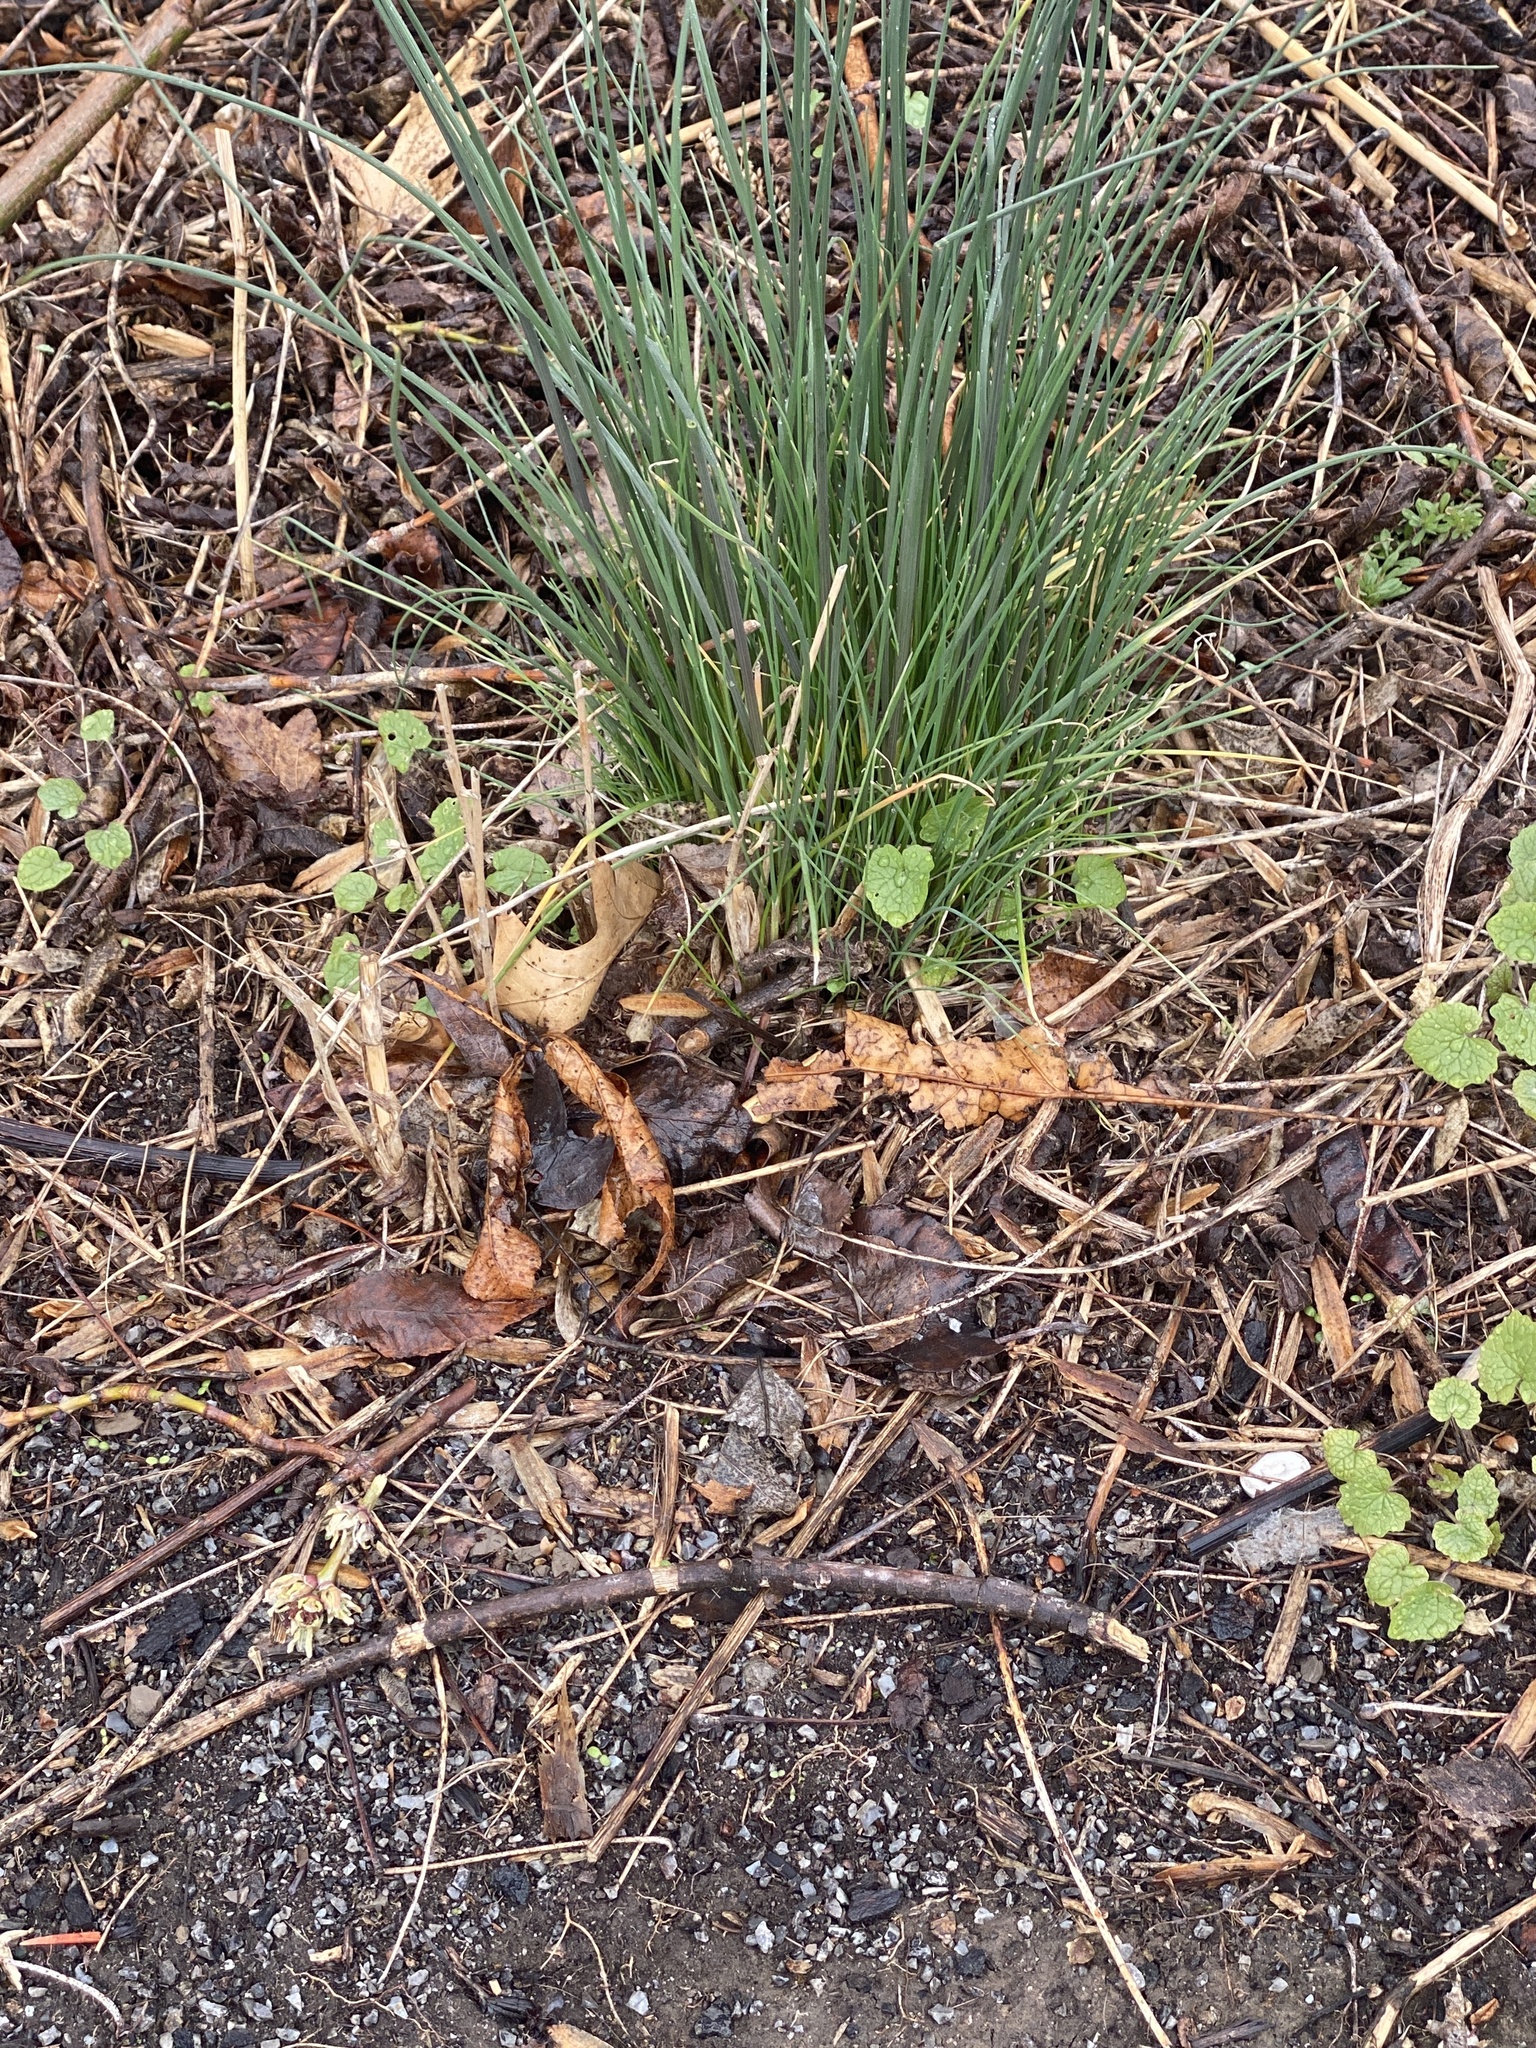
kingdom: Plantae
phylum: Tracheophyta
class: Liliopsida
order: Asparagales
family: Amaryllidaceae
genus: Allium
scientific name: Allium vineale
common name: Crow garlic
